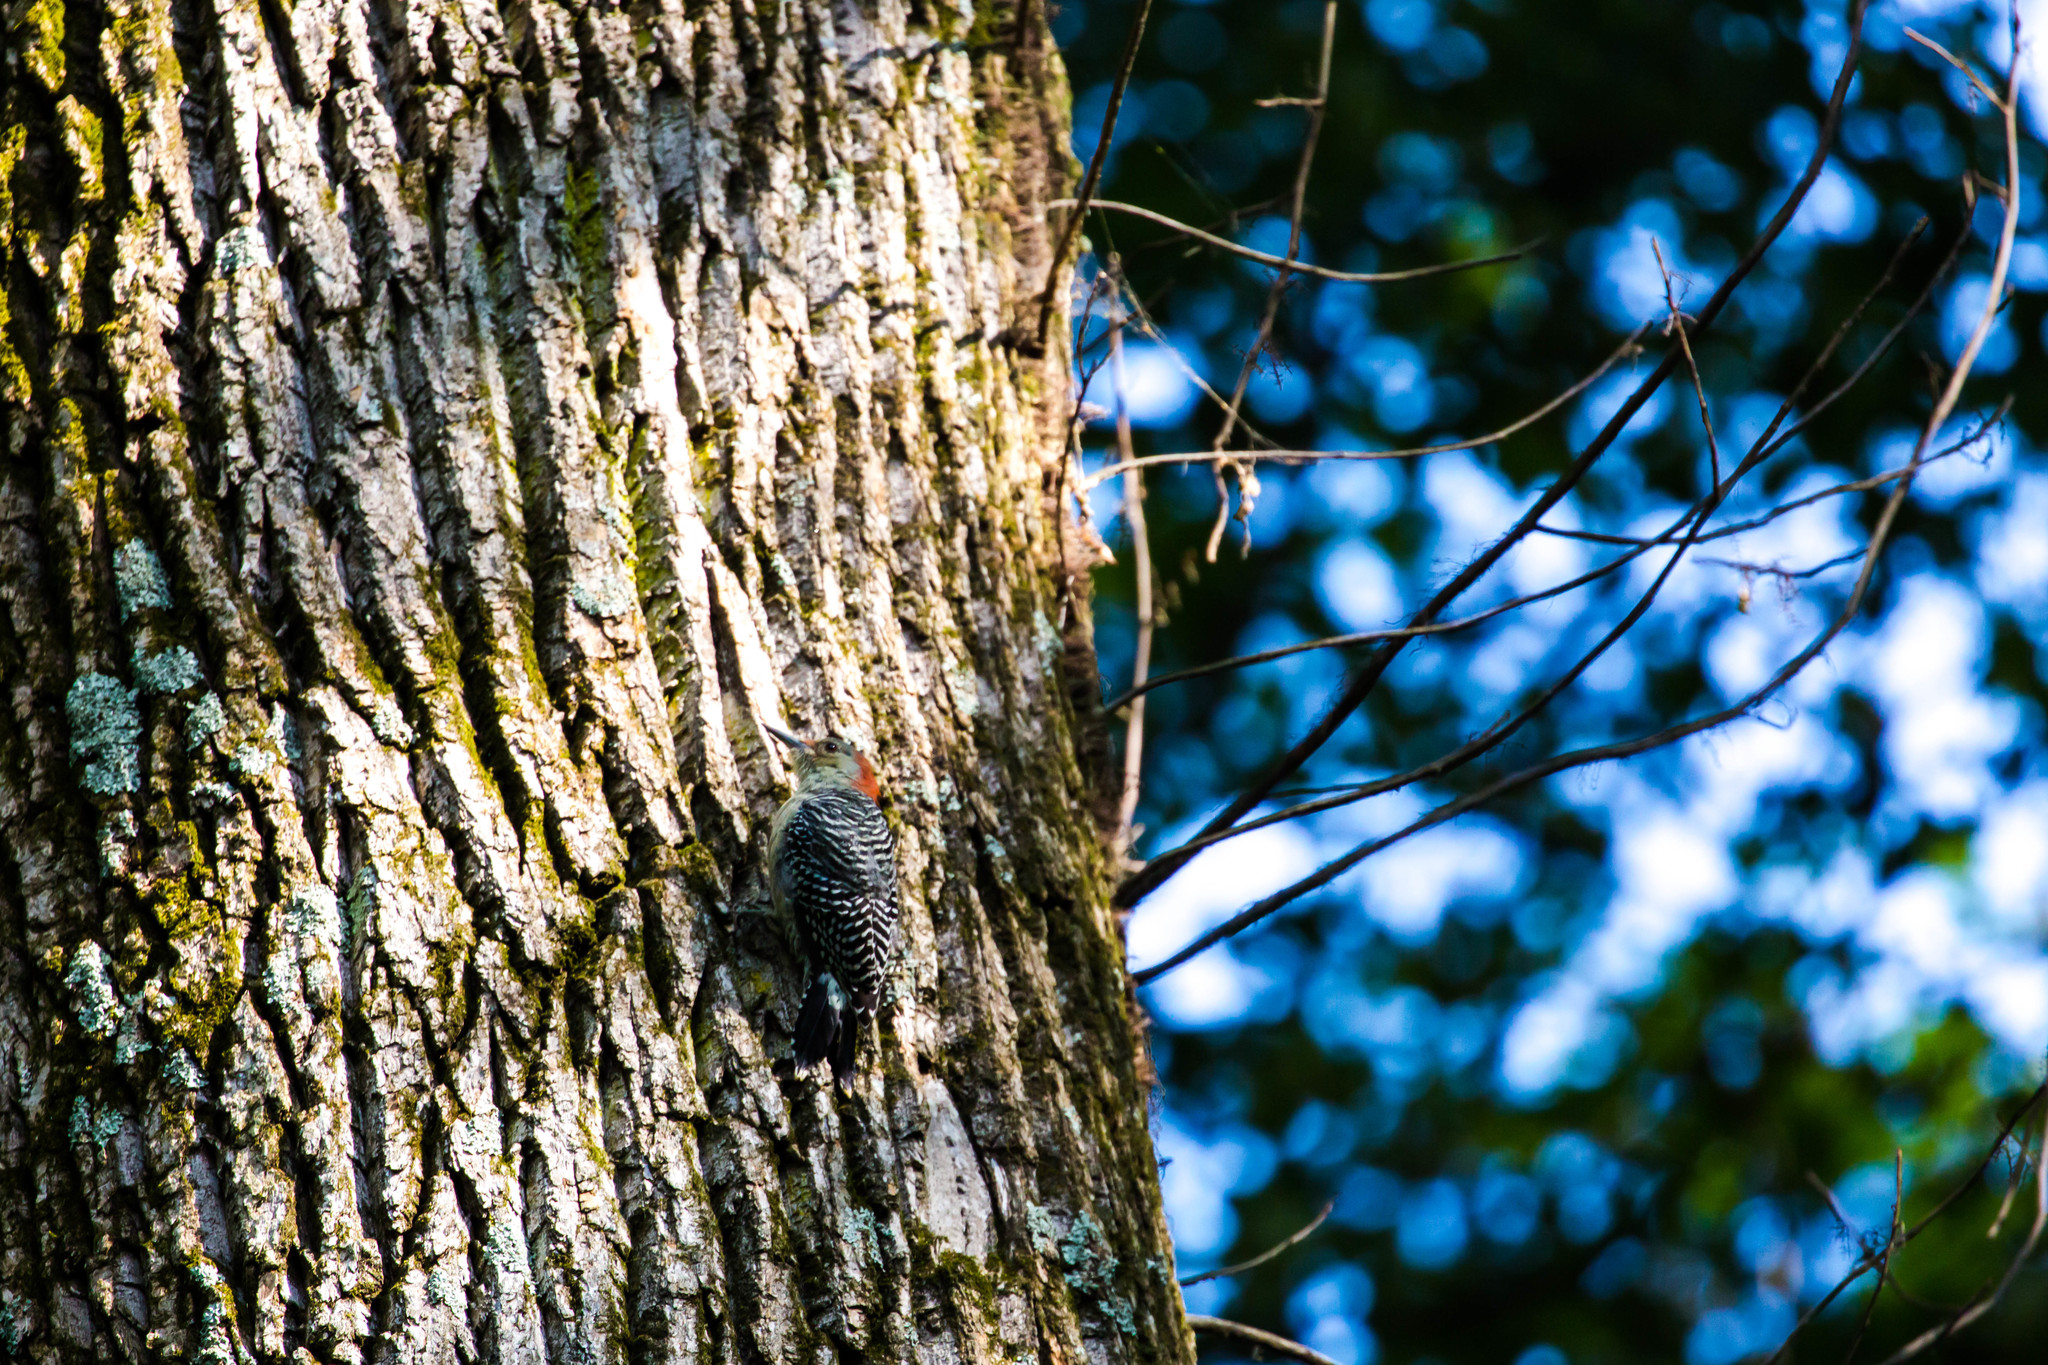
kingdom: Animalia
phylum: Chordata
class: Aves
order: Piciformes
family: Picidae
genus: Melanerpes
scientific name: Melanerpes carolinus
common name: Red-bellied woodpecker
